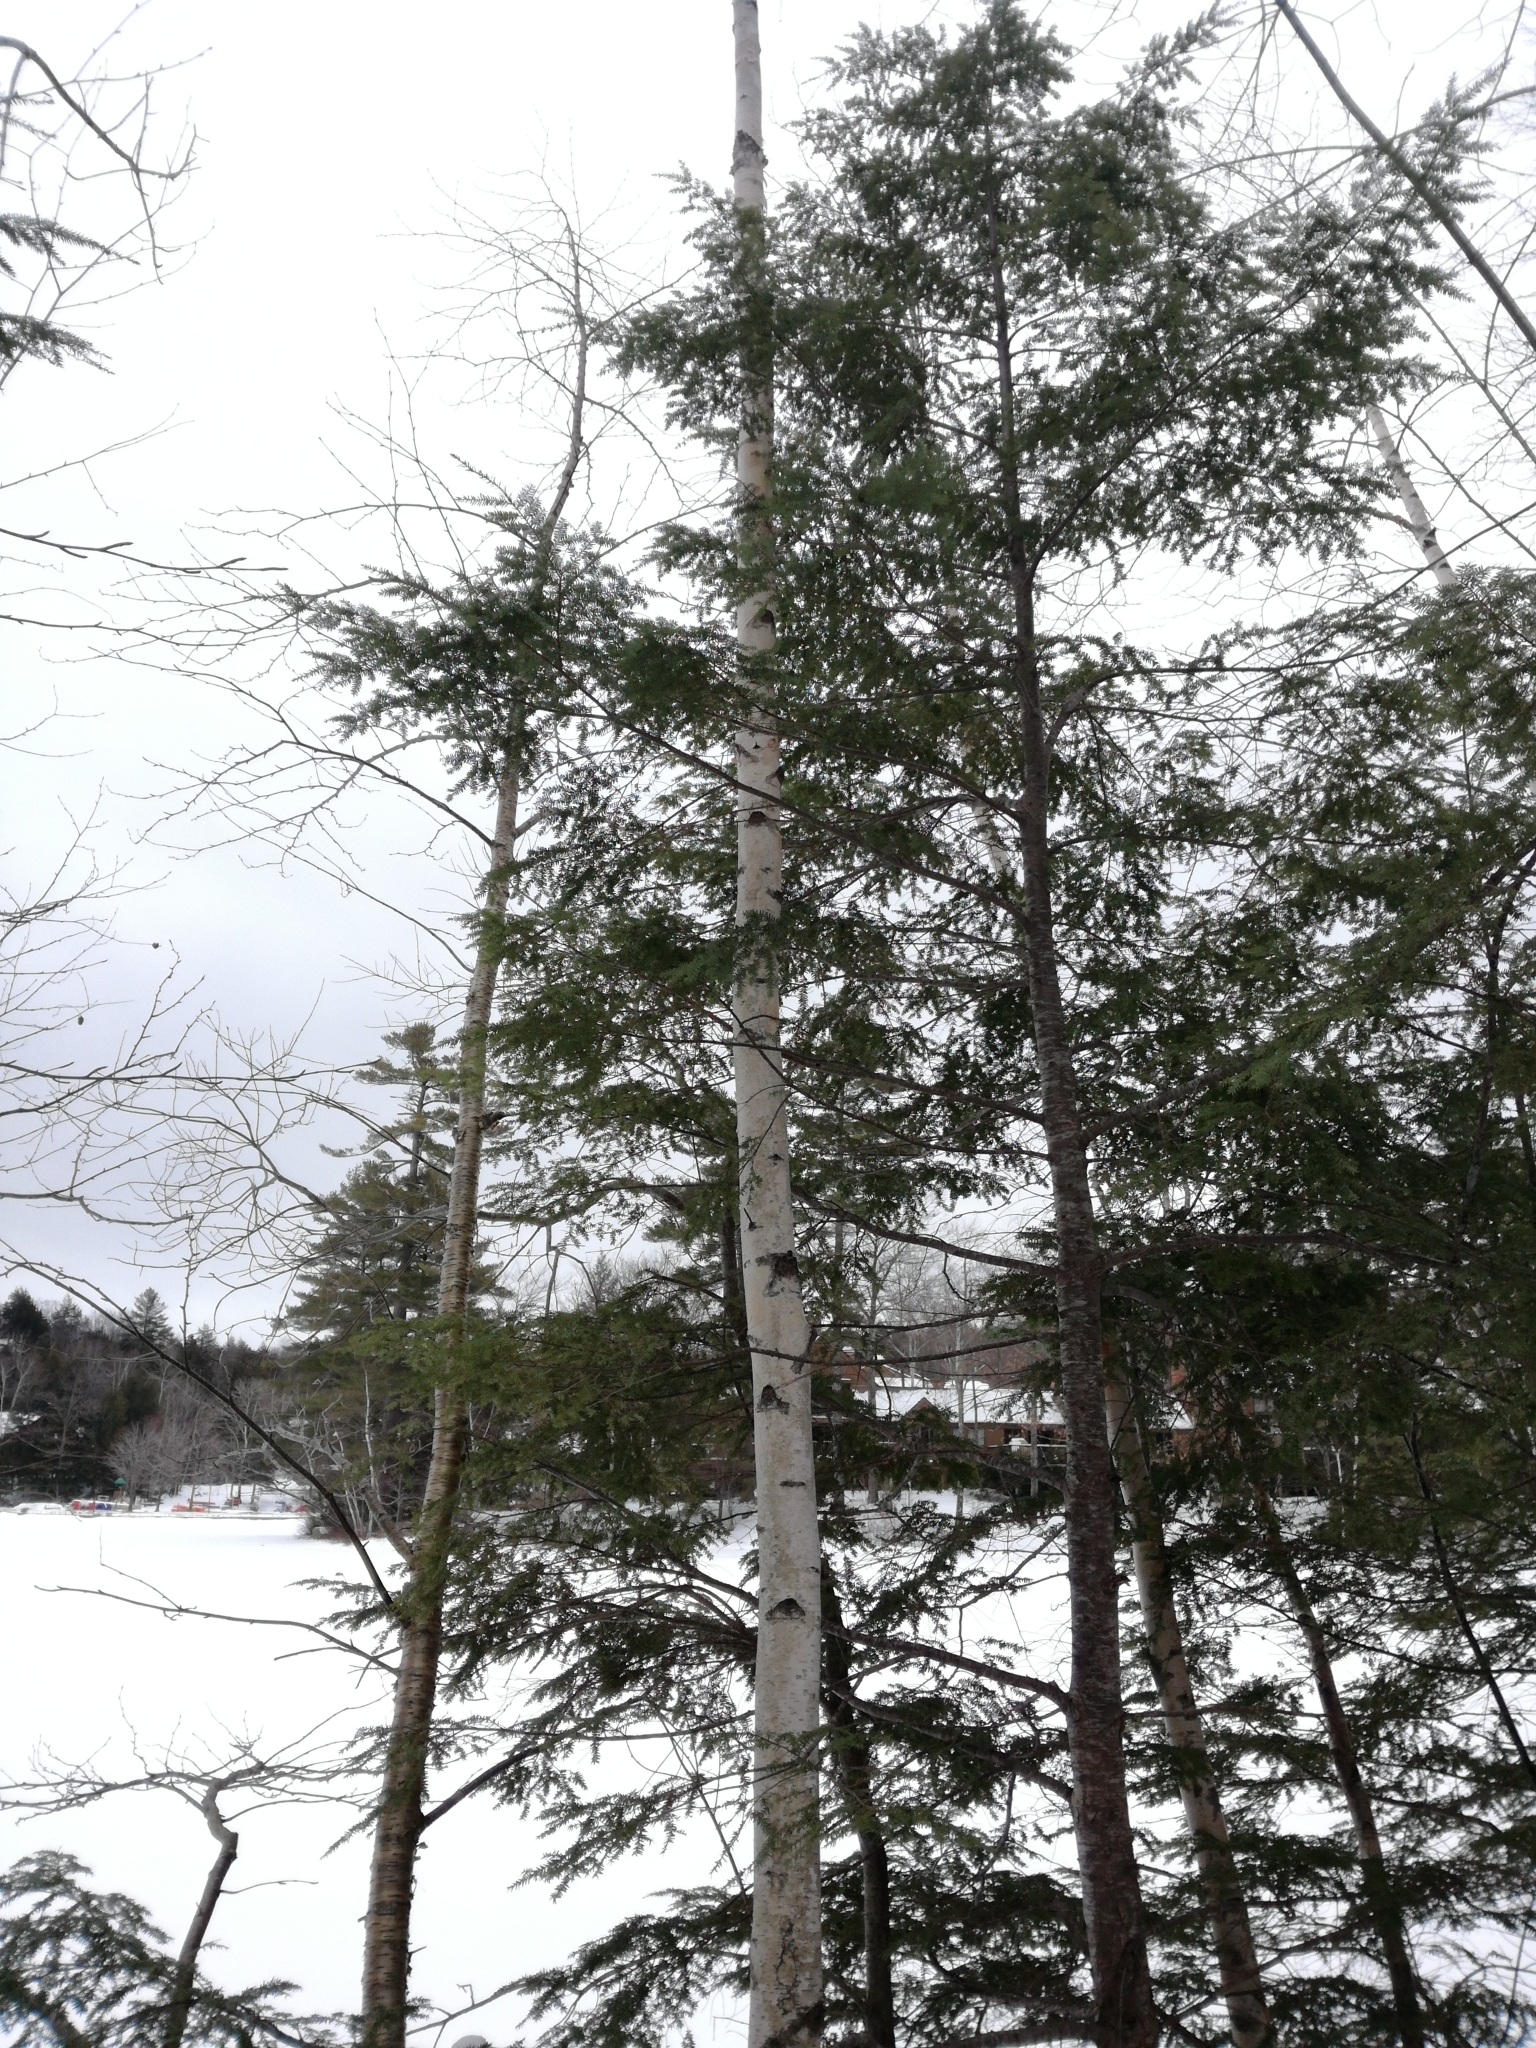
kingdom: Plantae
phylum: Tracheophyta
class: Magnoliopsida
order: Fagales
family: Betulaceae
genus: Betula
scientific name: Betula papyrifera
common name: Paper birch
